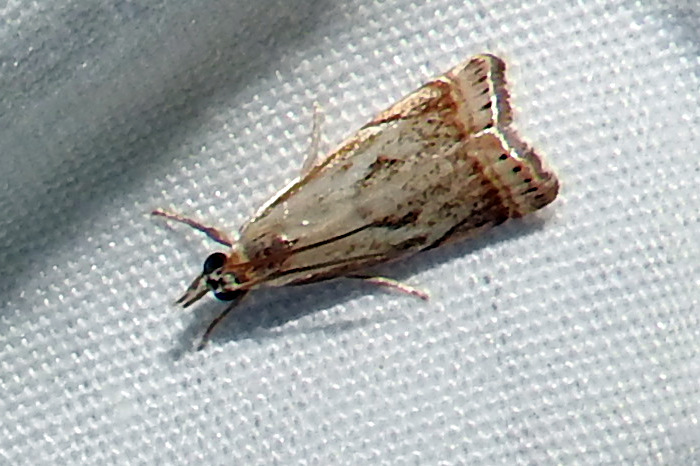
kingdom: Animalia
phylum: Arthropoda
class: Insecta
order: Lepidoptera
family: Crambidae
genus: Microcrambus
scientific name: Microcrambus elegans
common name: Elegant grass-veneer
